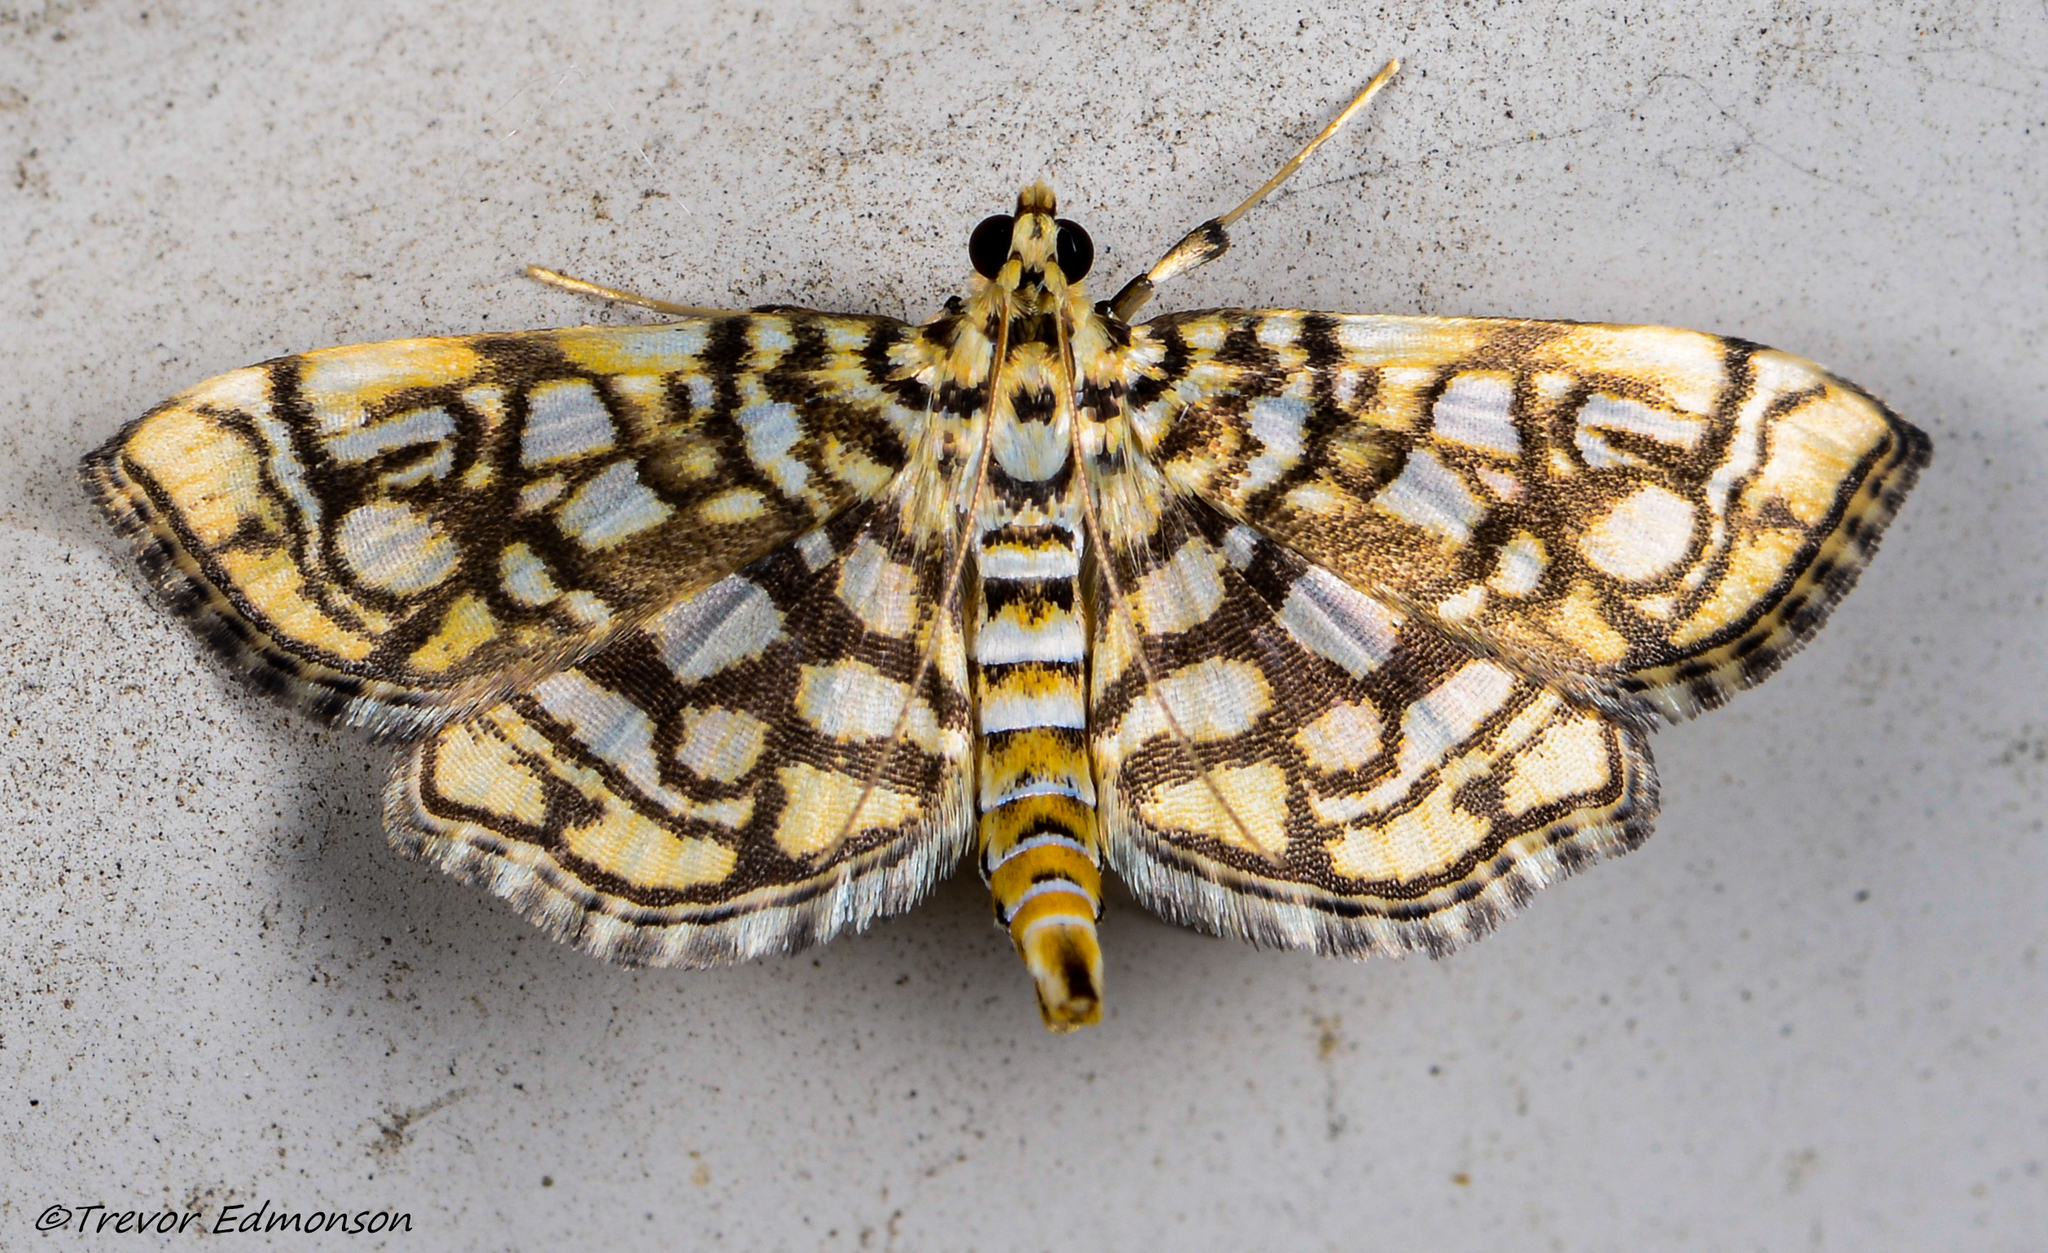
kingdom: Animalia
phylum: Arthropoda
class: Insecta
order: Lepidoptera
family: Crambidae
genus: Lygropia
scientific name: Lygropia rivulalis
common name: Bog lygropia moth
